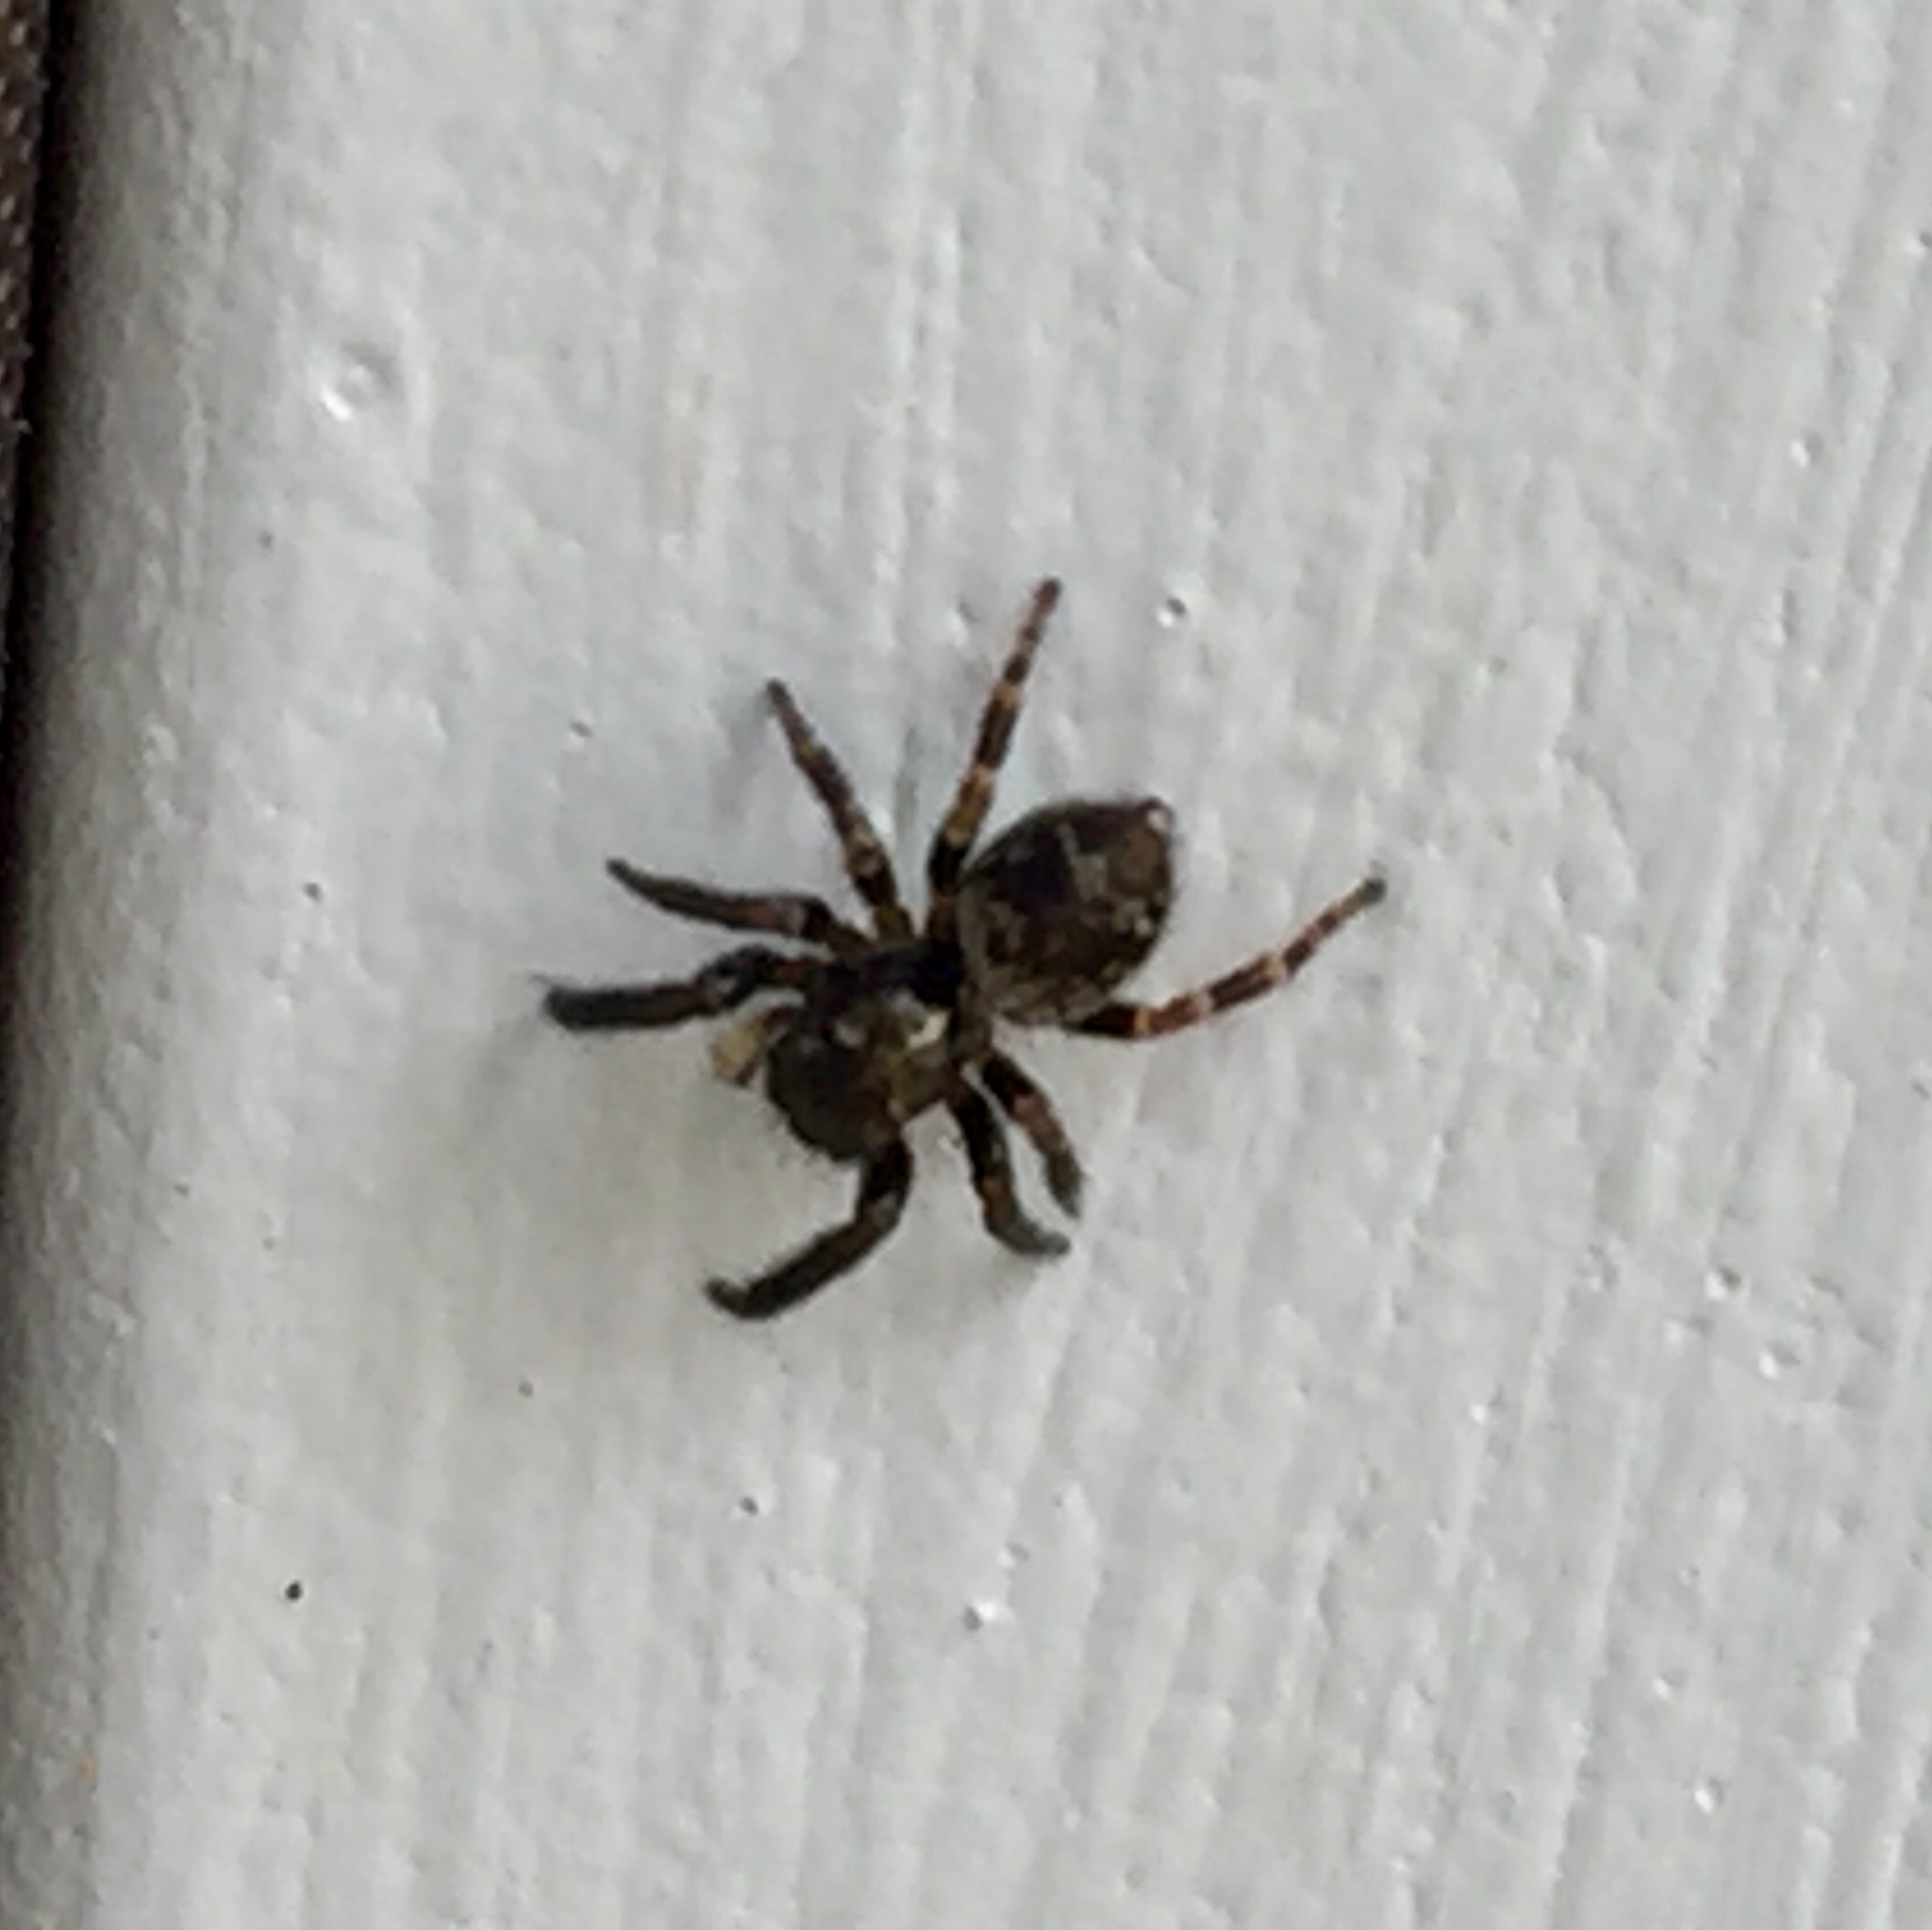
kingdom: Animalia
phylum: Arthropoda
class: Arachnida
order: Araneae
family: Salticidae
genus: Pseudeuophrys
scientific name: Pseudeuophrys erratica
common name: Jumping spider
